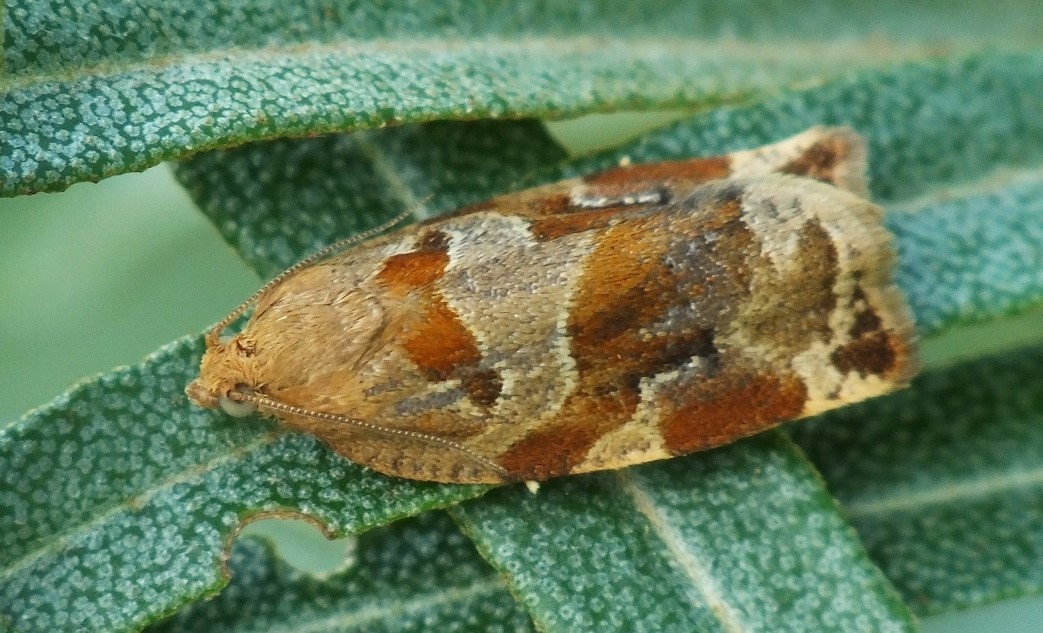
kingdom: Animalia
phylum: Arthropoda
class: Insecta
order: Lepidoptera
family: Tortricidae
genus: Archips
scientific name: Archips xylosteana
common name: Variegated golden tortrix
